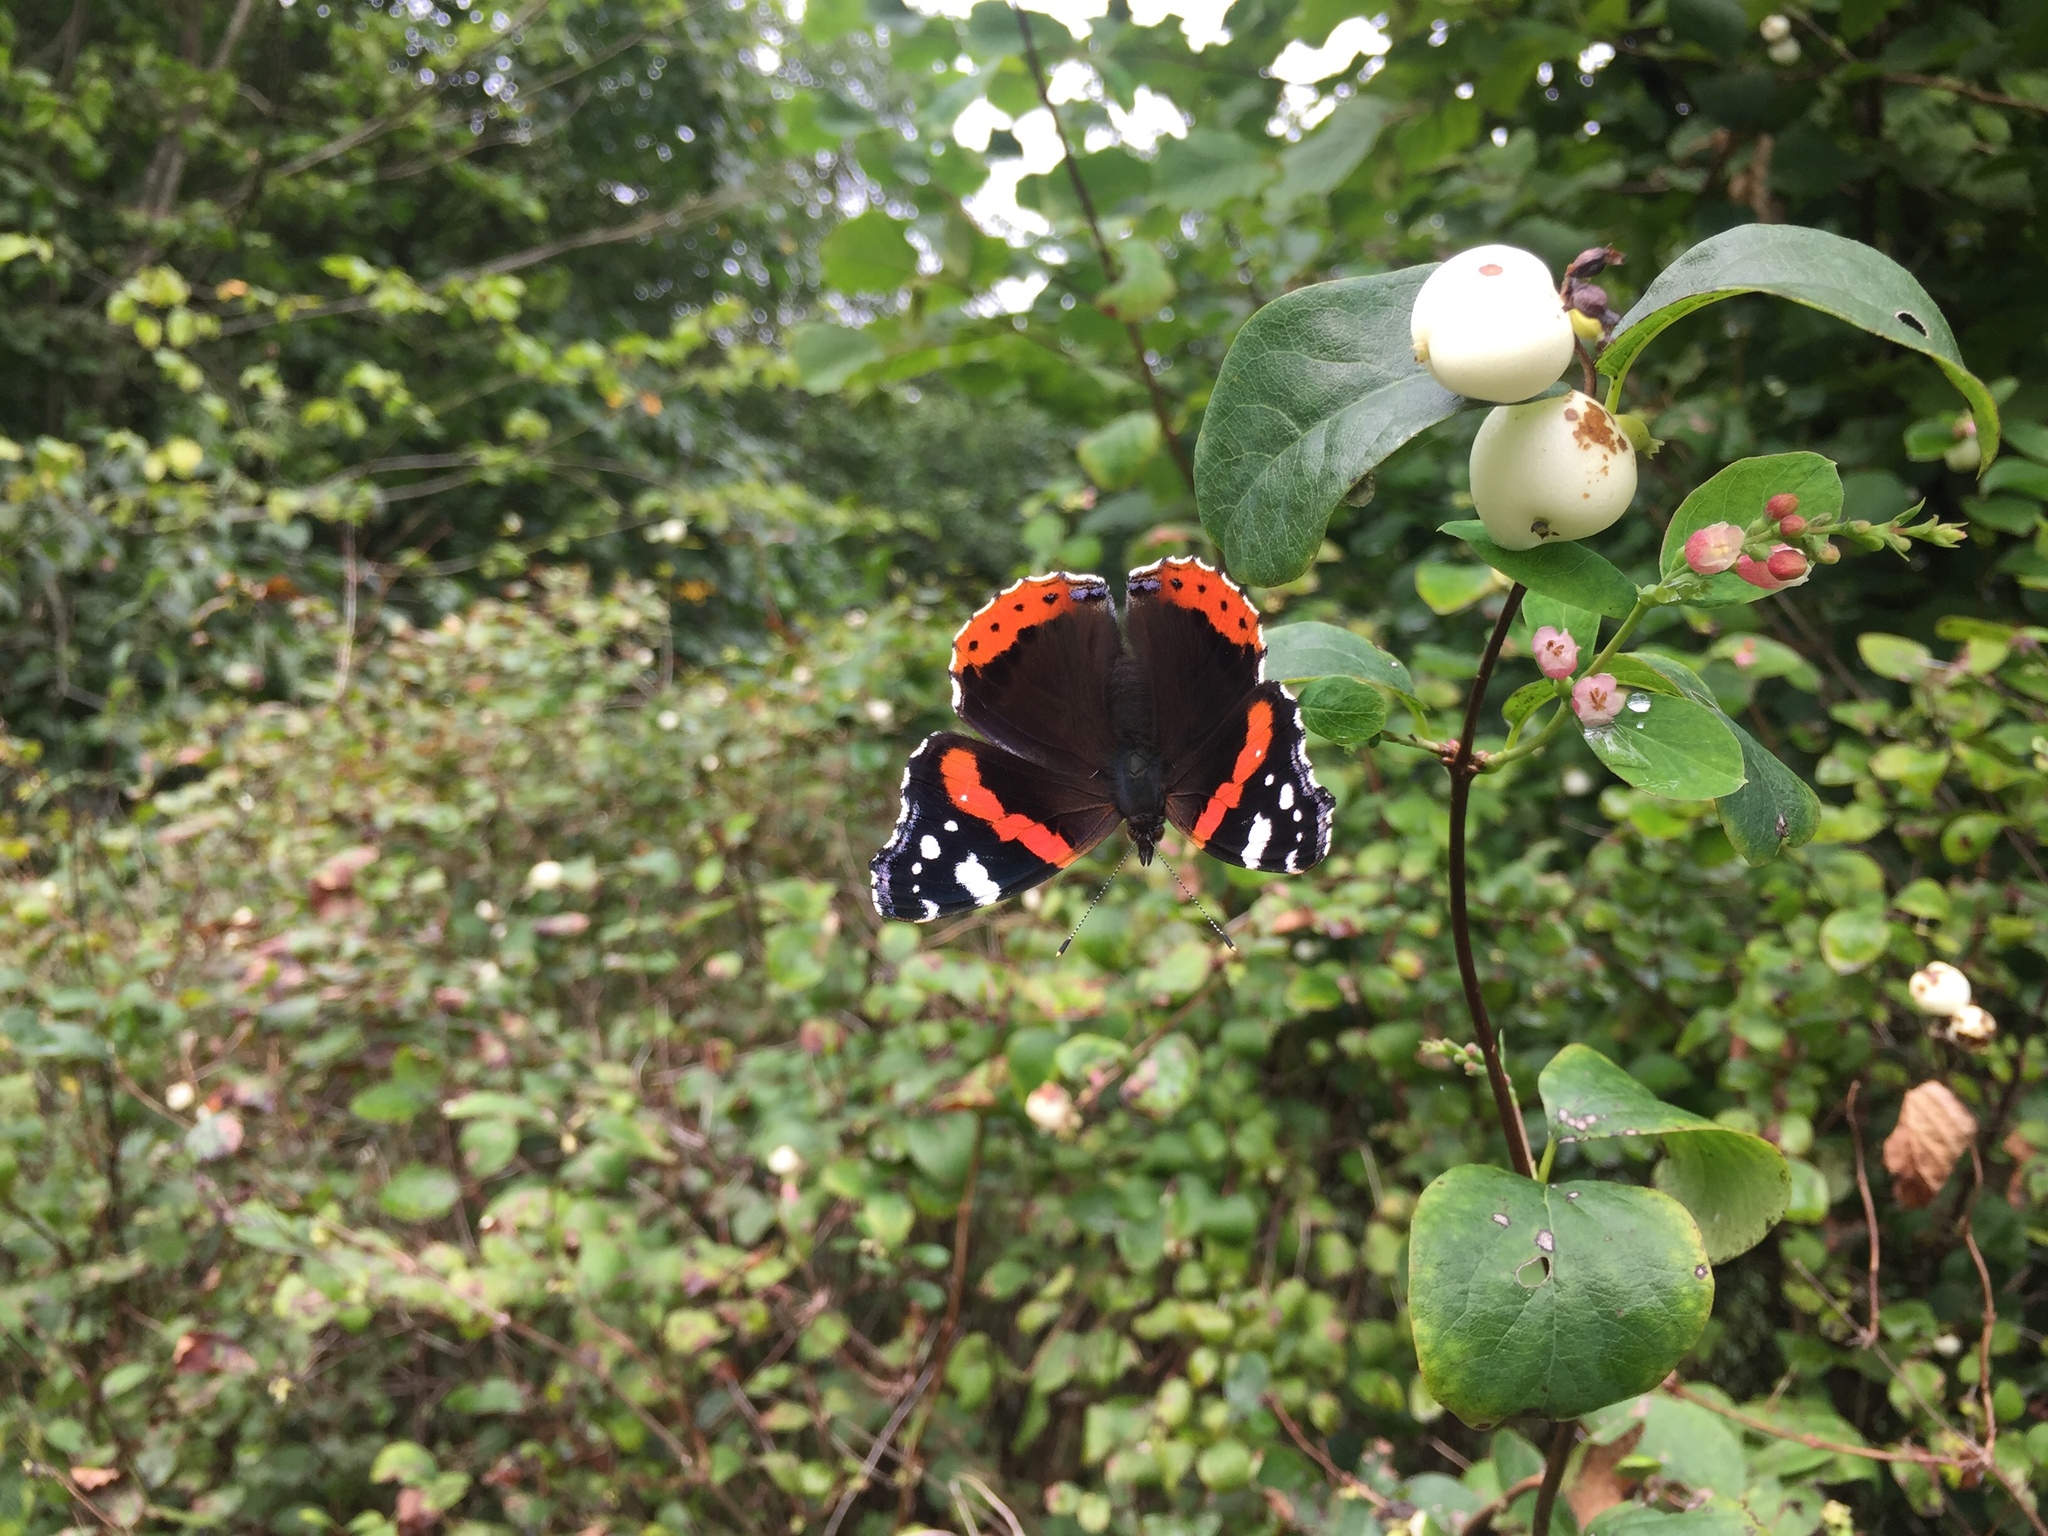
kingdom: Animalia
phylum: Arthropoda
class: Insecta
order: Lepidoptera
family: Nymphalidae
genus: Vanessa
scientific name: Vanessa atalanta
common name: Red admiral
